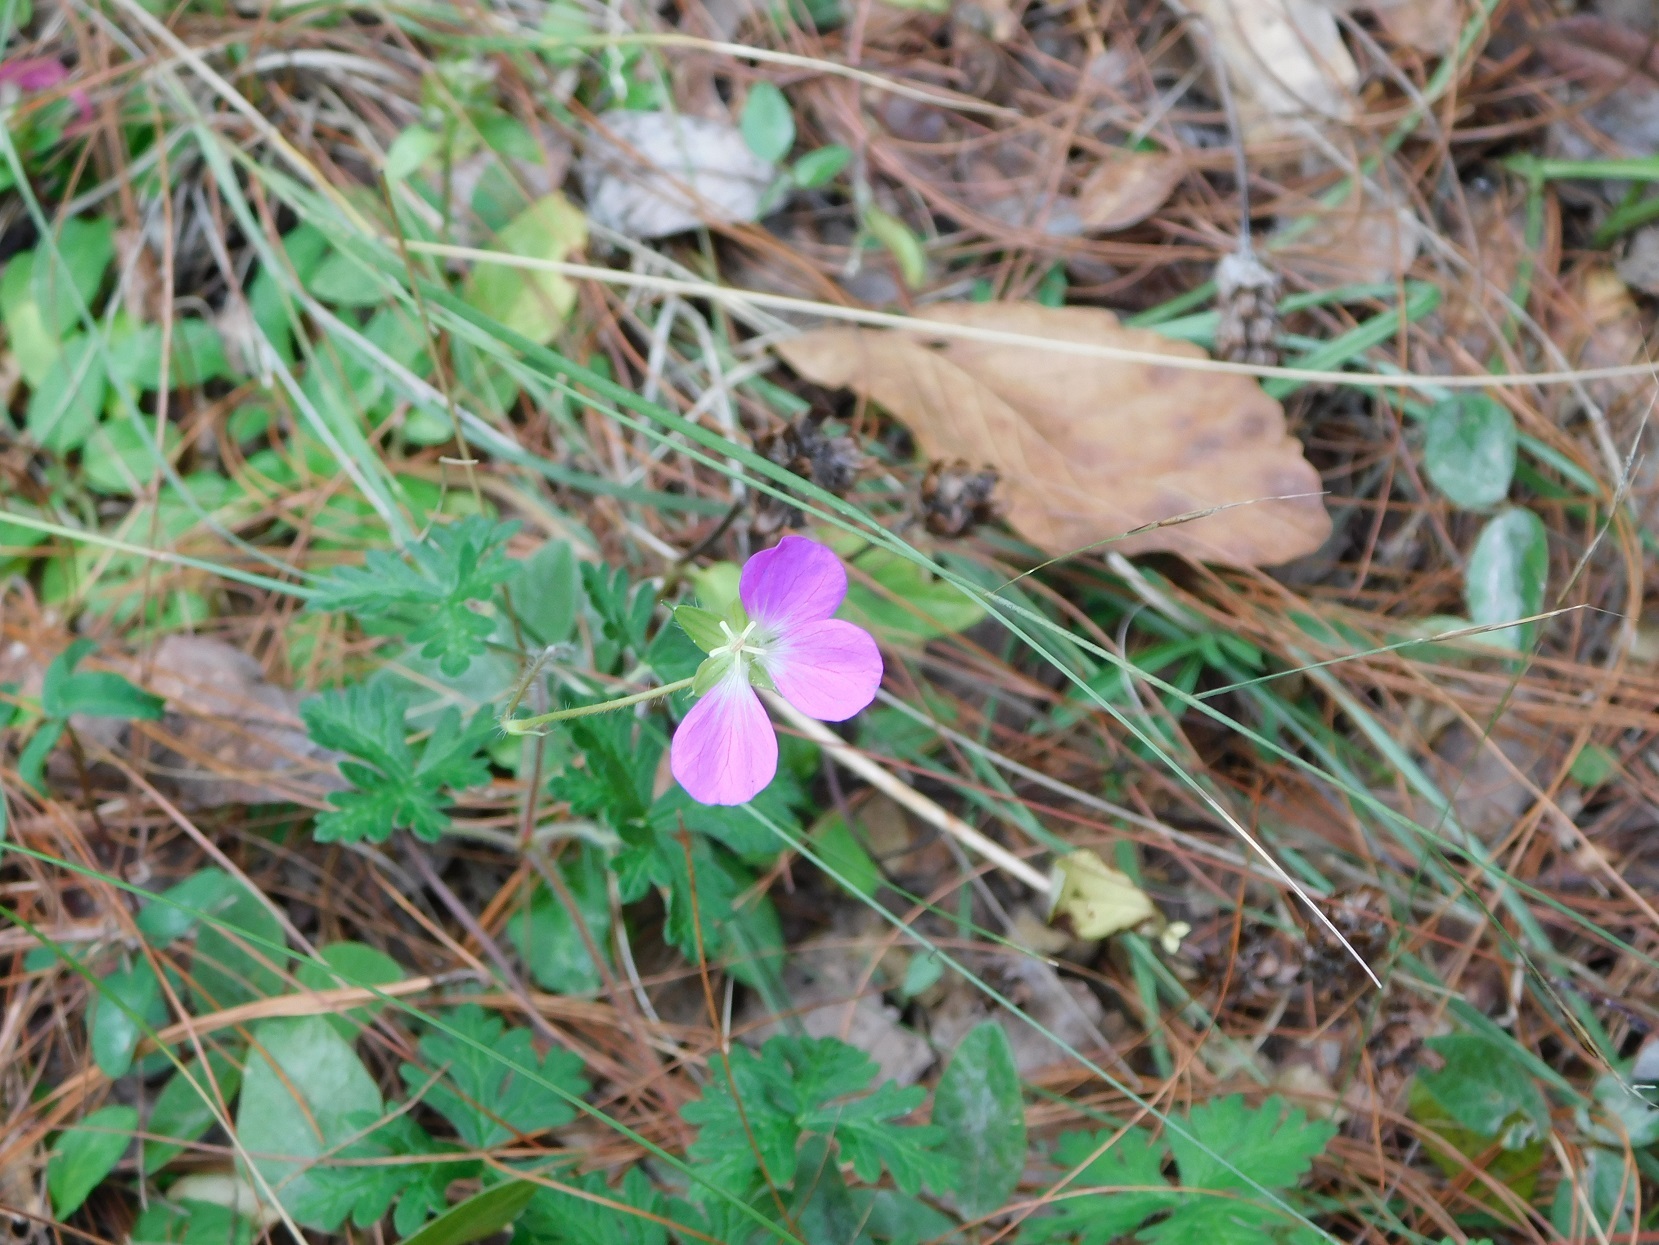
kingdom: Plantae
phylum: Tracheophyta
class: Magnoliopsida
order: Geraniales
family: Geraniaceae
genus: Geranium
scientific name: Geranium goldmanii
